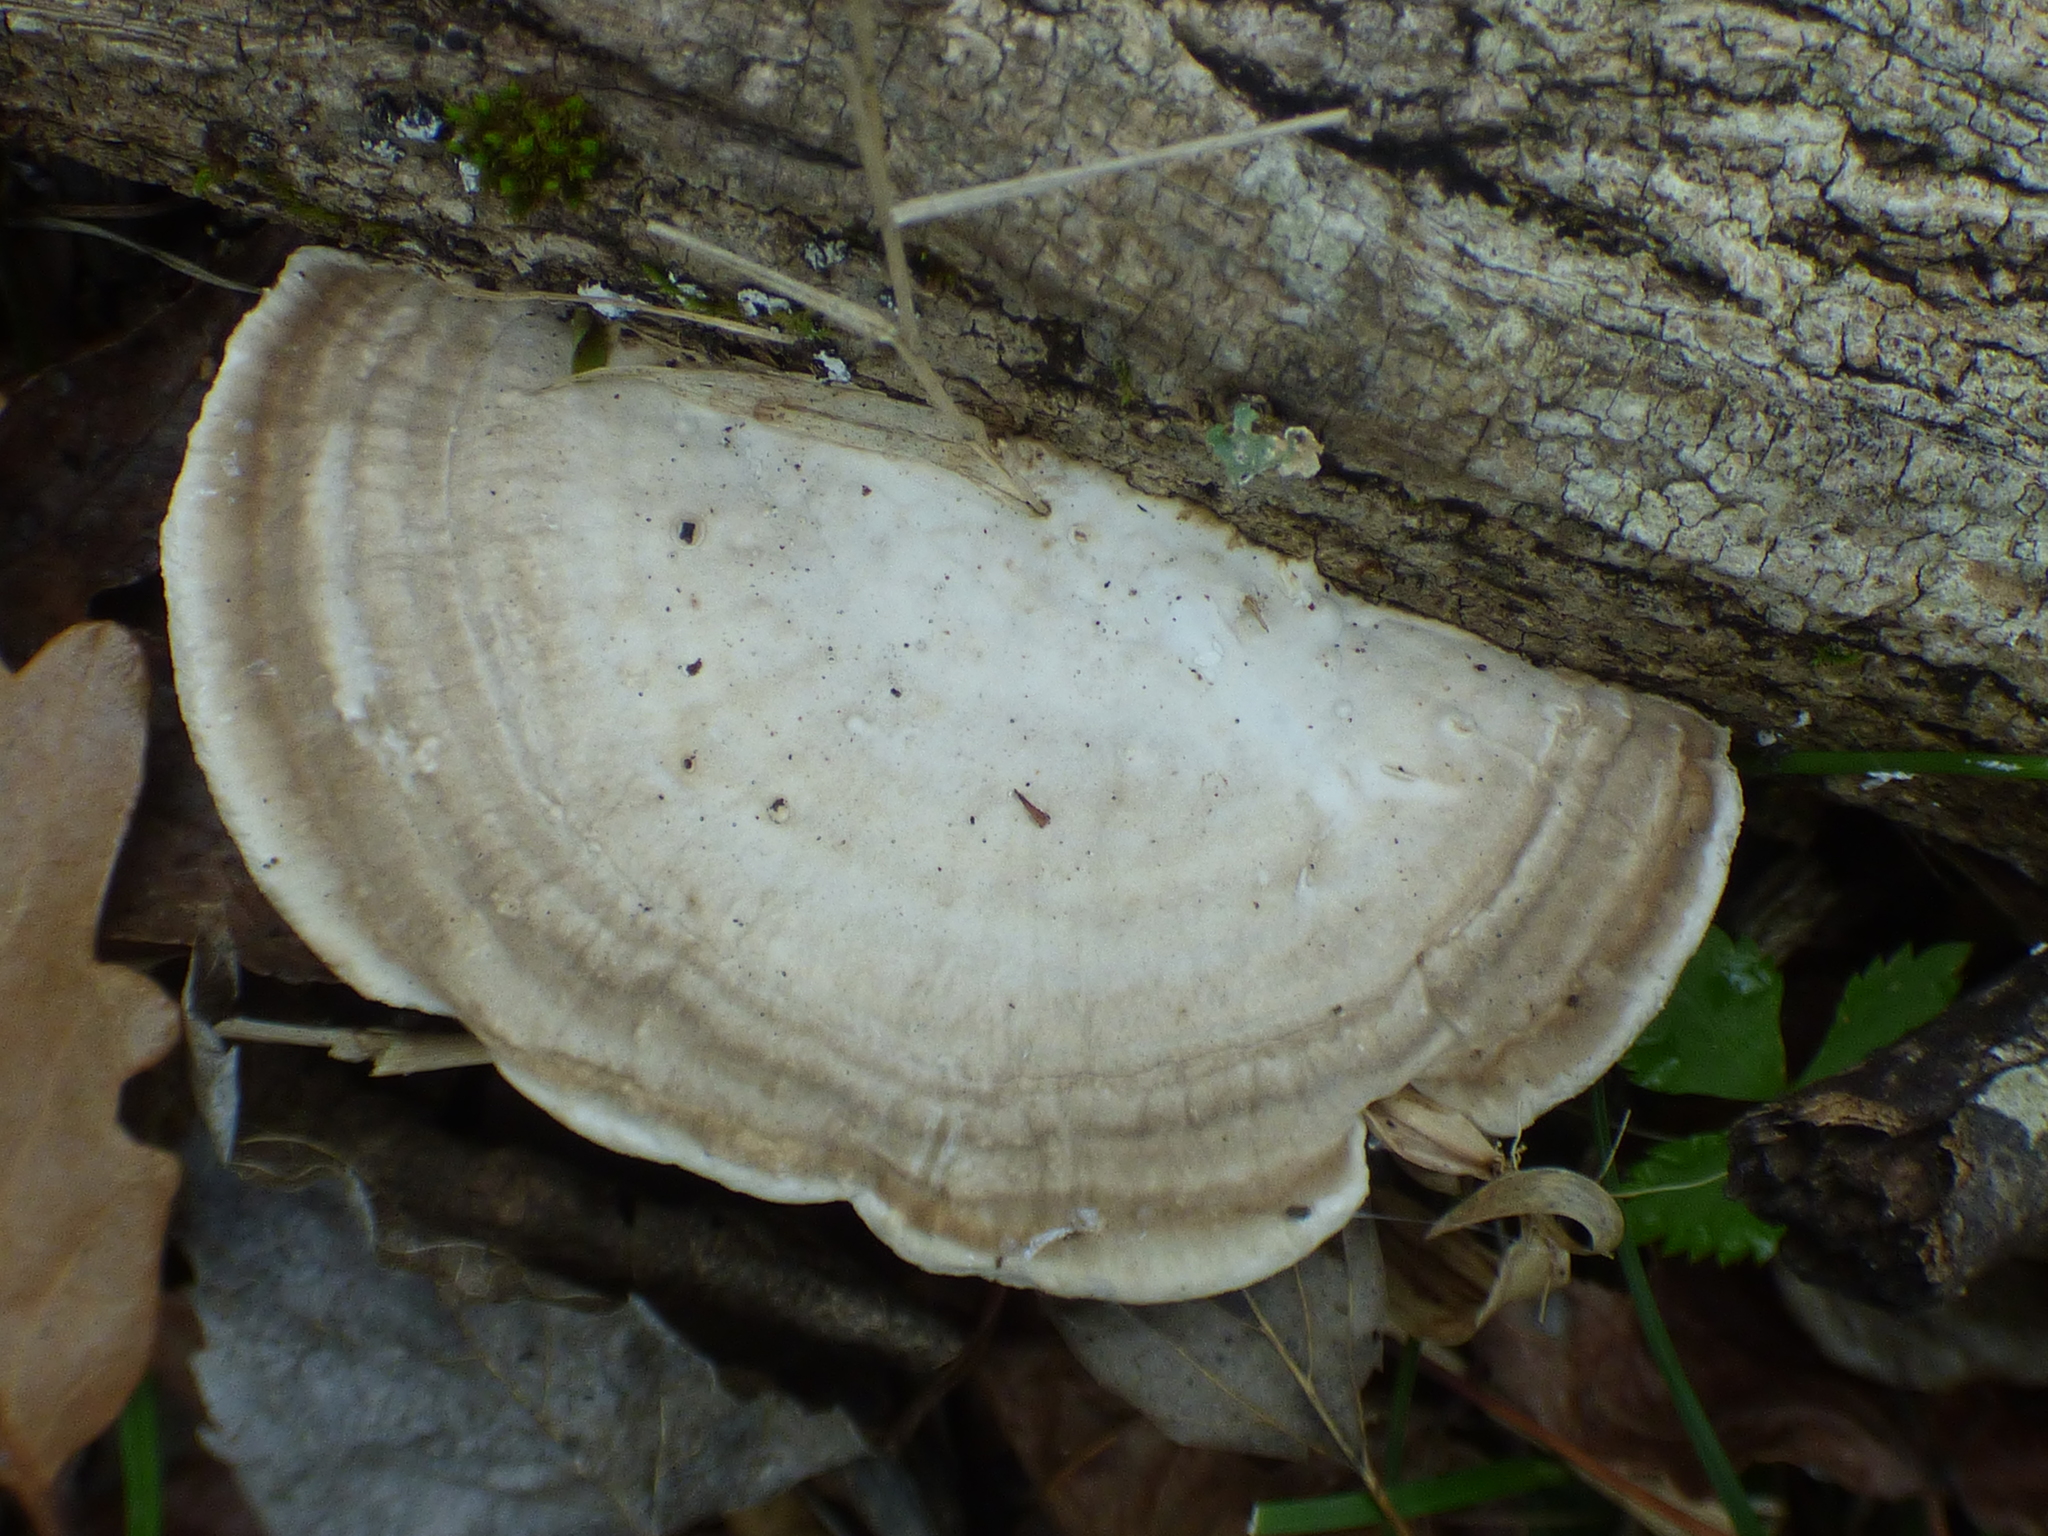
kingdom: Fungi
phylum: Basidiomycota
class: Agaricomycetes
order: Polyporales
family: Polyporaceae
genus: Trametes
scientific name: Trametes lactinea
